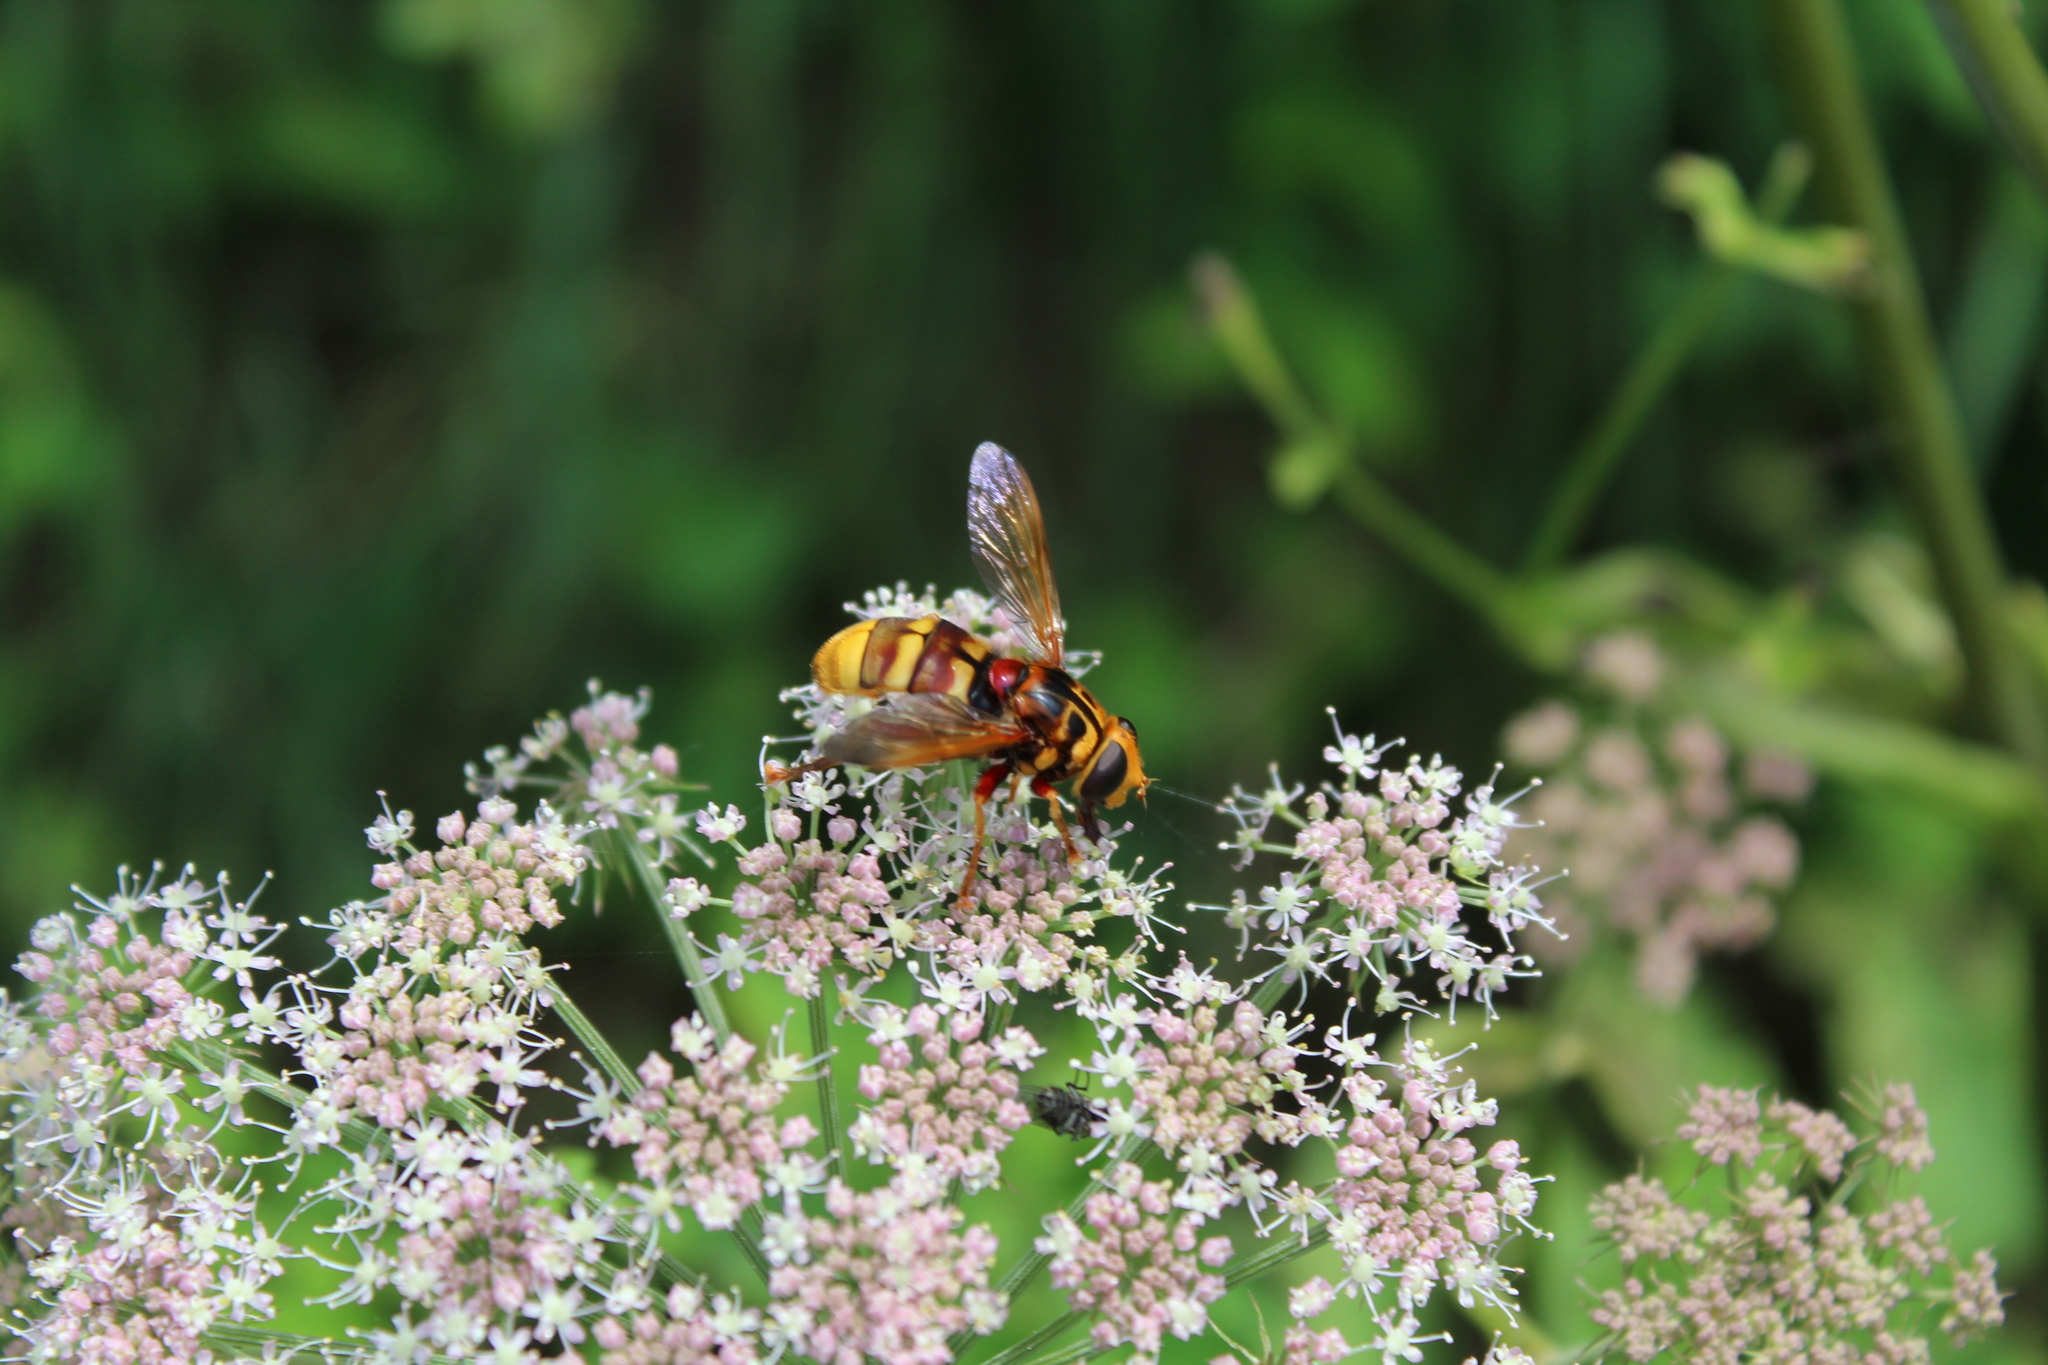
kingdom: Animalia
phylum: Arthropoda
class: Insecta
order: Diptera
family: Syrphidae
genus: Milesia
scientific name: Milesia crabroniformis
